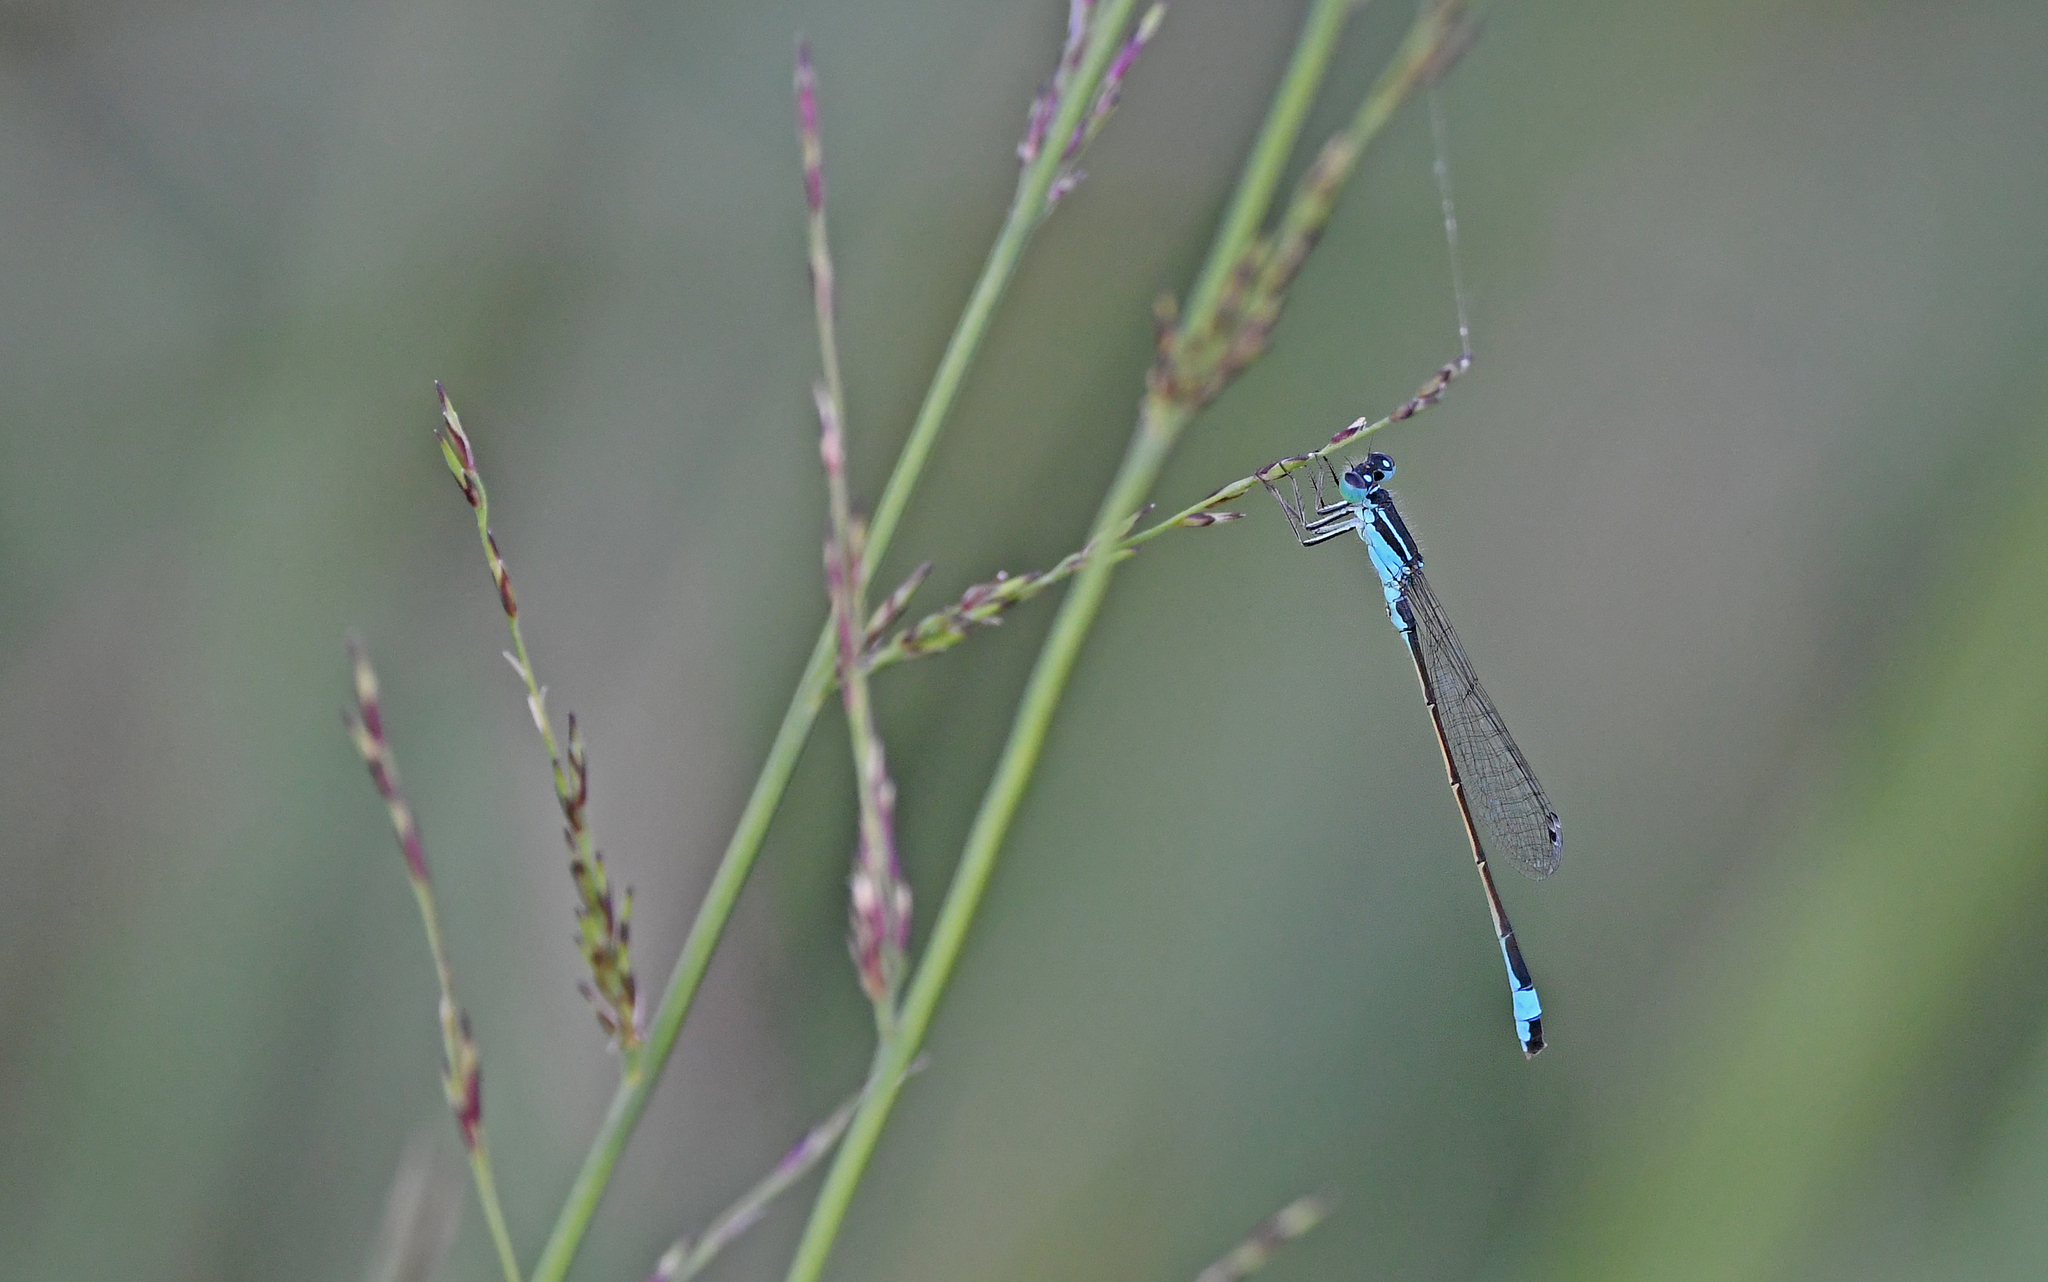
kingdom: Animalia
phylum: Arthropoda
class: Insecta
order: Odonata
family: Coenagrionidae
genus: Ischnura
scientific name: Ischnura elegans
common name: Blue-tailed damselfly
